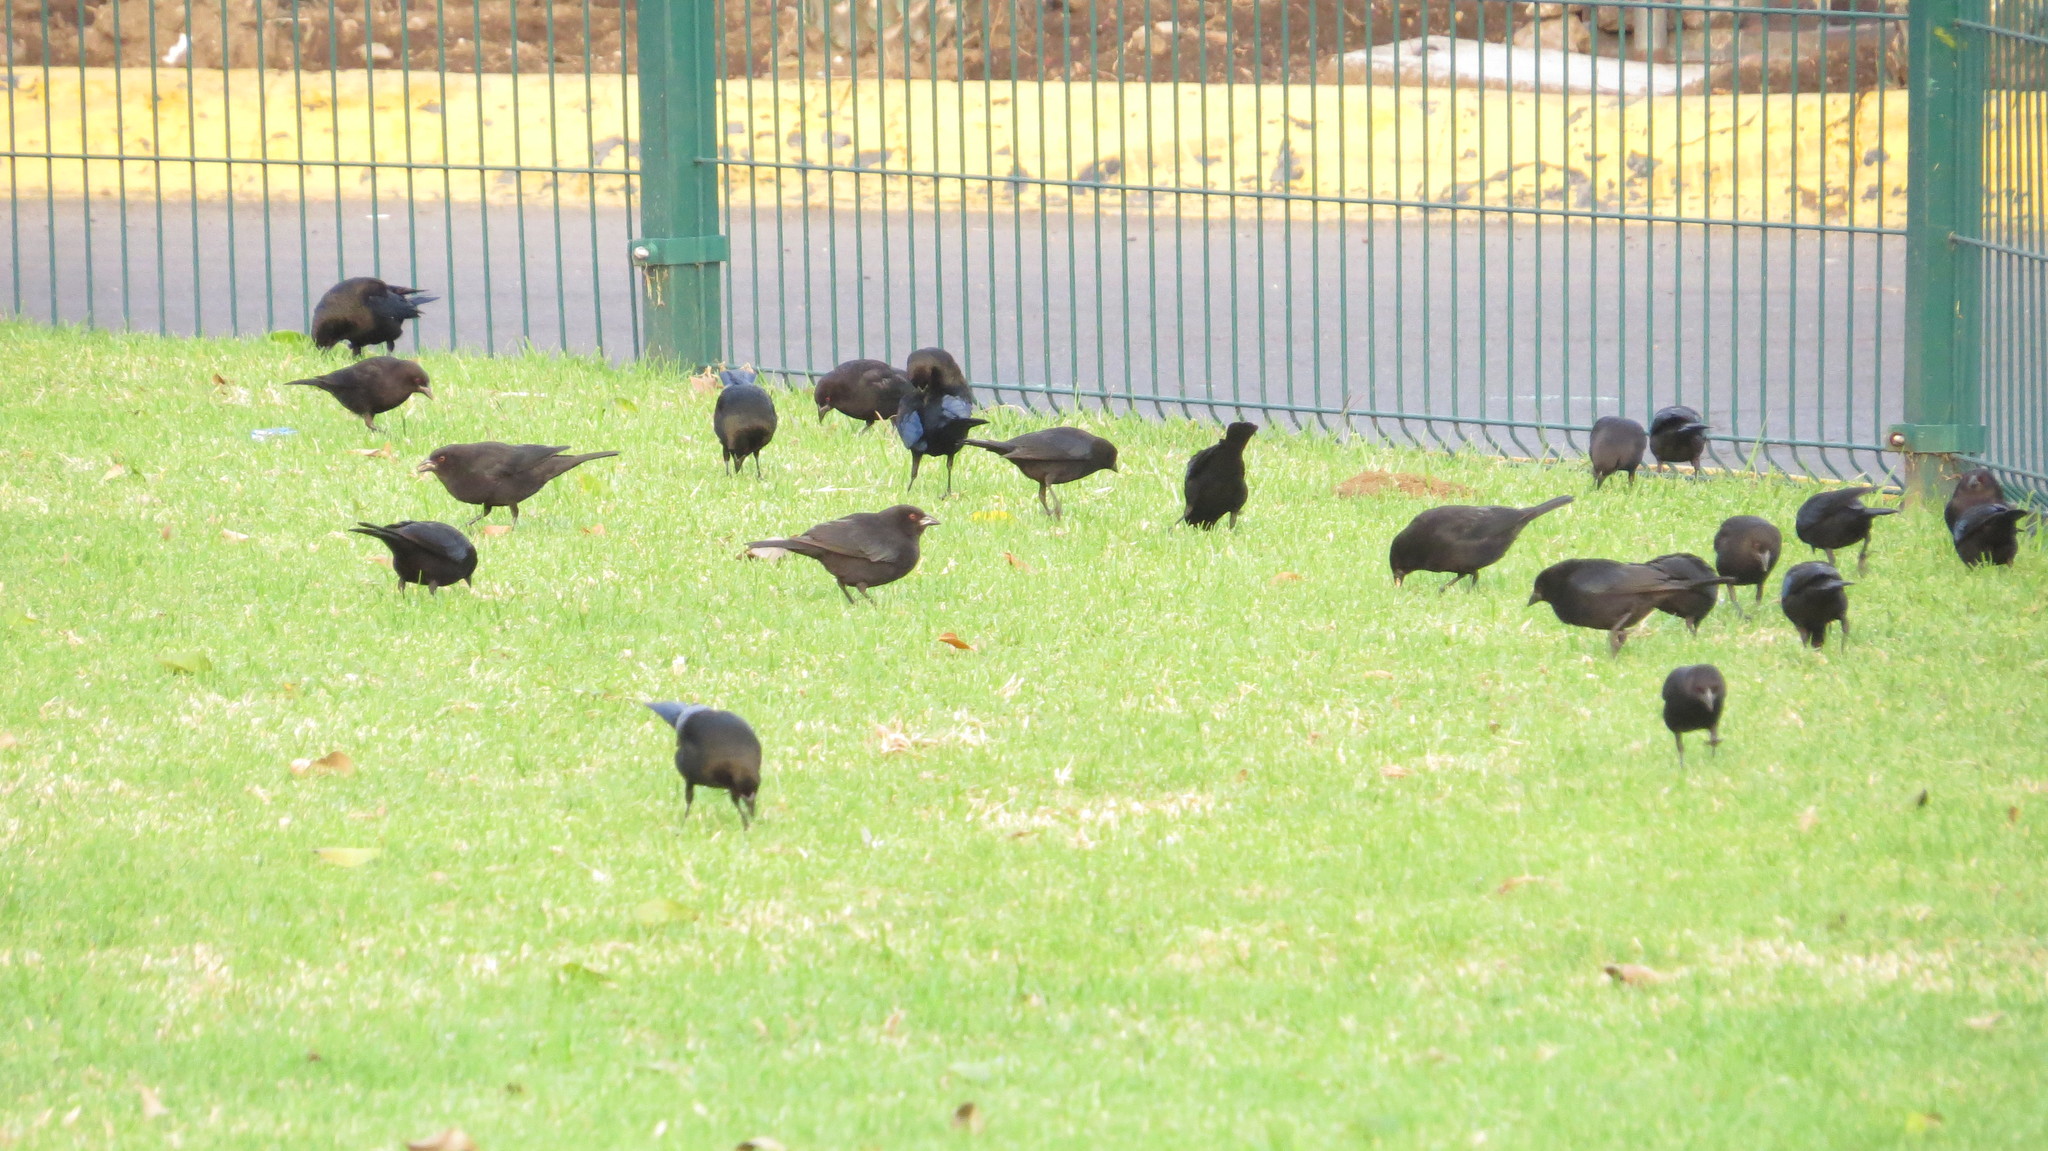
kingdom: Animalia
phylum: Chordata
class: Aves
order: Passeriformes
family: Icteridae
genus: Molothrus
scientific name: Molothrus aeneus
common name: Bronzed cowbird
